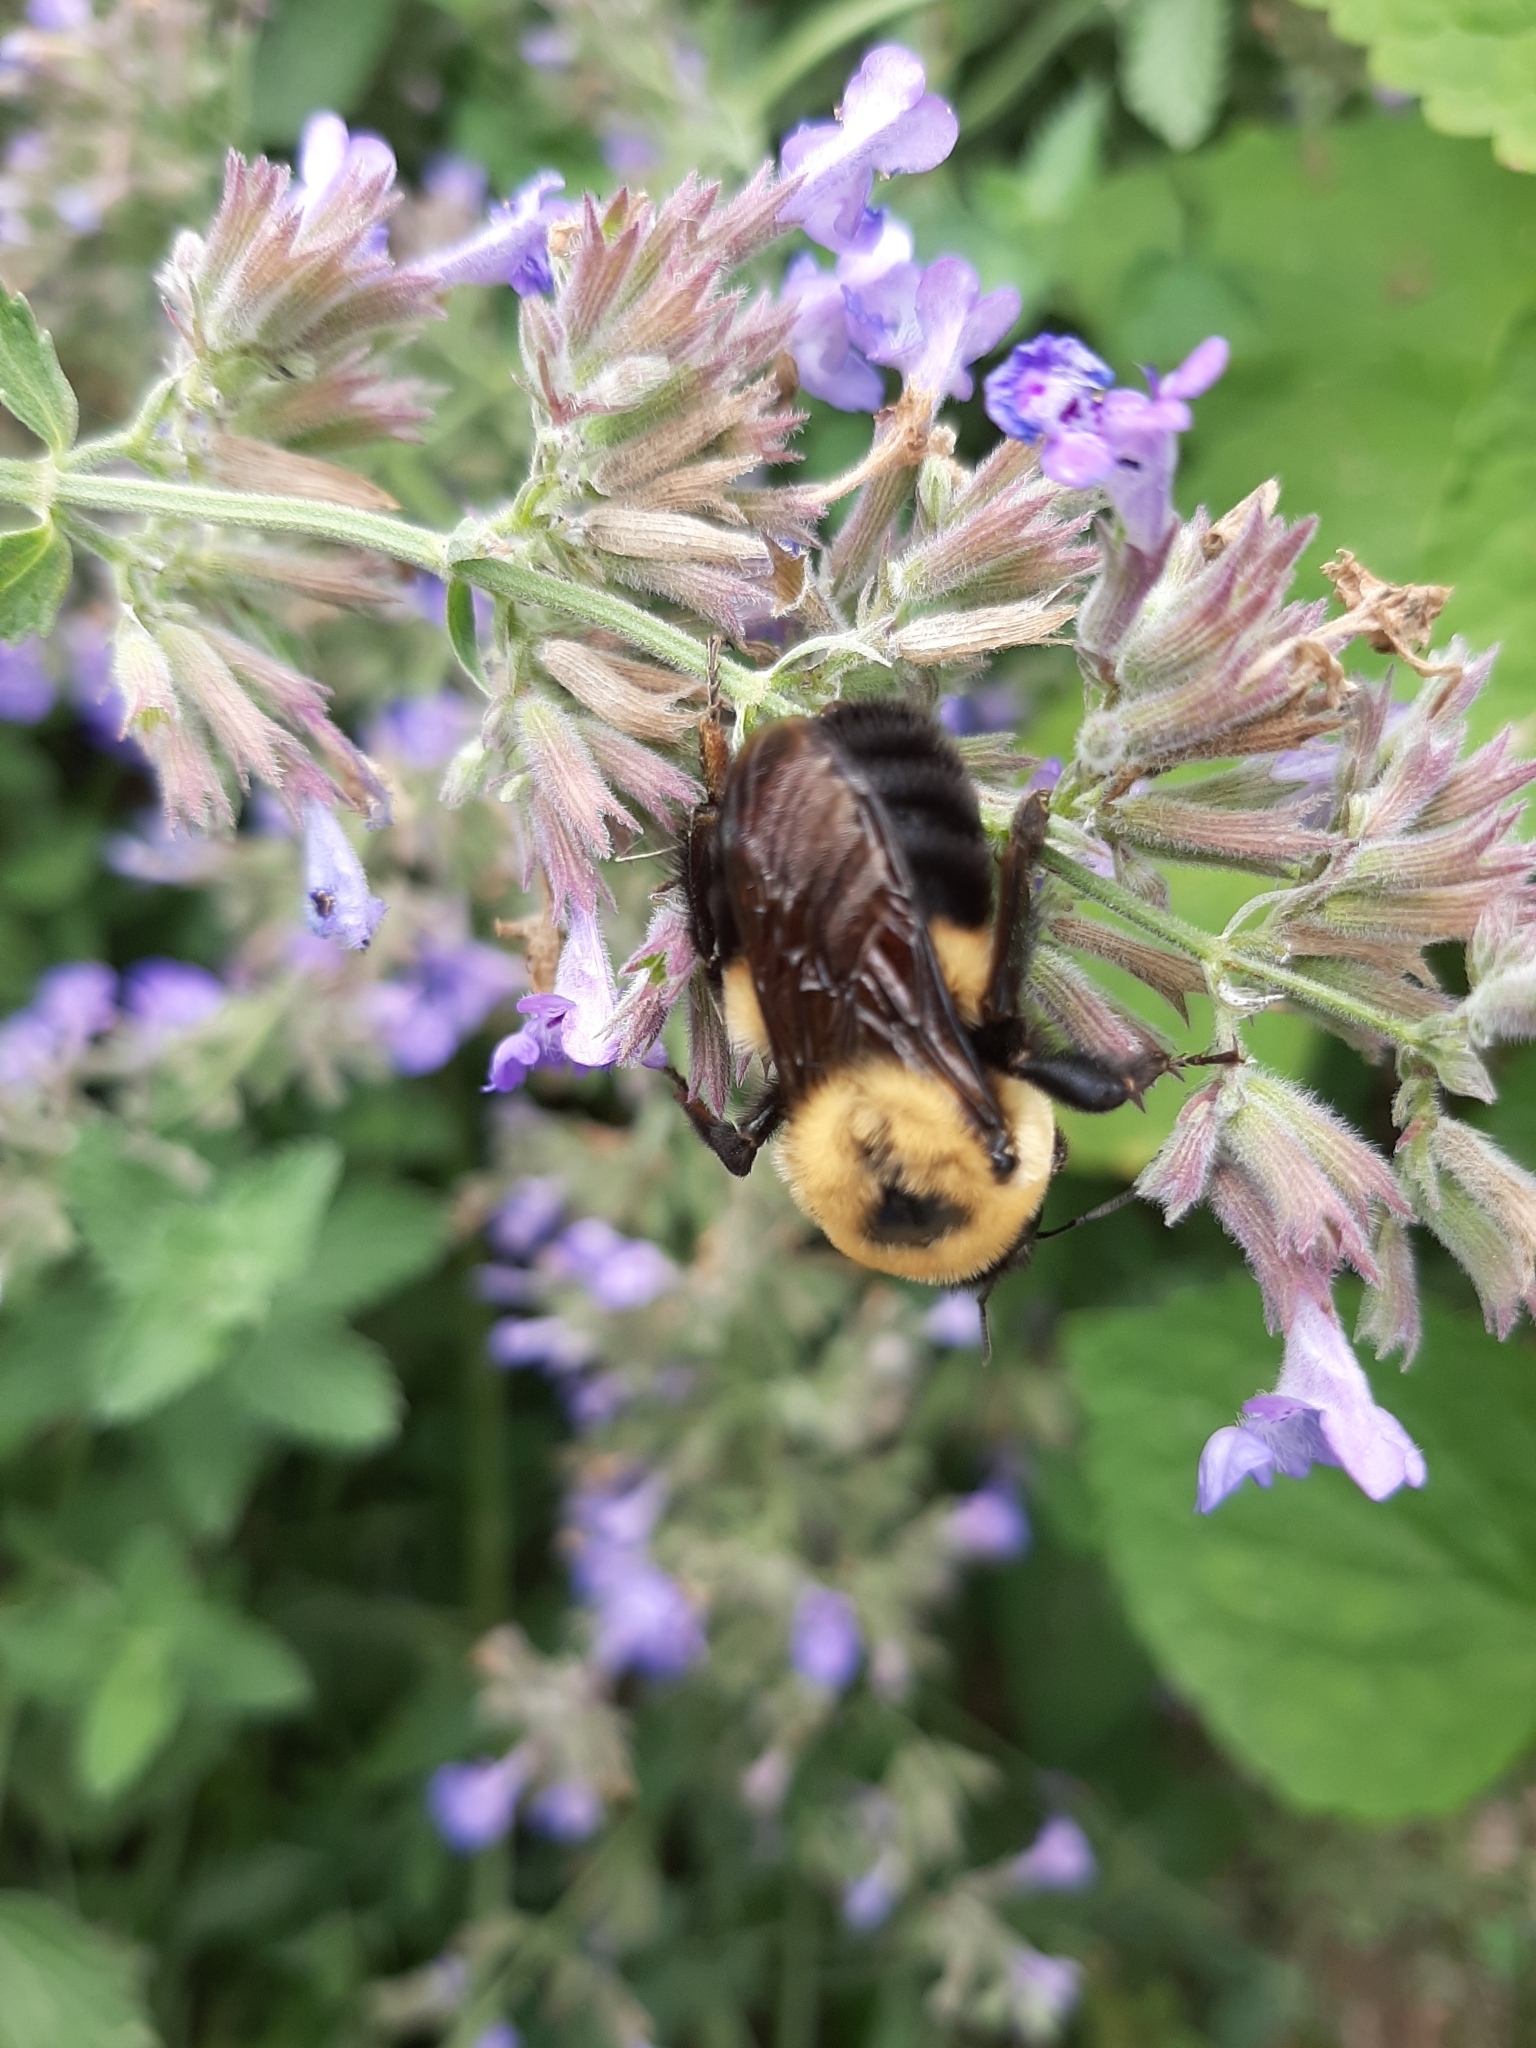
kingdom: Animalia
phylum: Arthropoda
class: Insecta
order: Hymenoptera
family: Apidae
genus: Bombus
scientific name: Bombus griseocollis
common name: Brown-belted bumble bee
